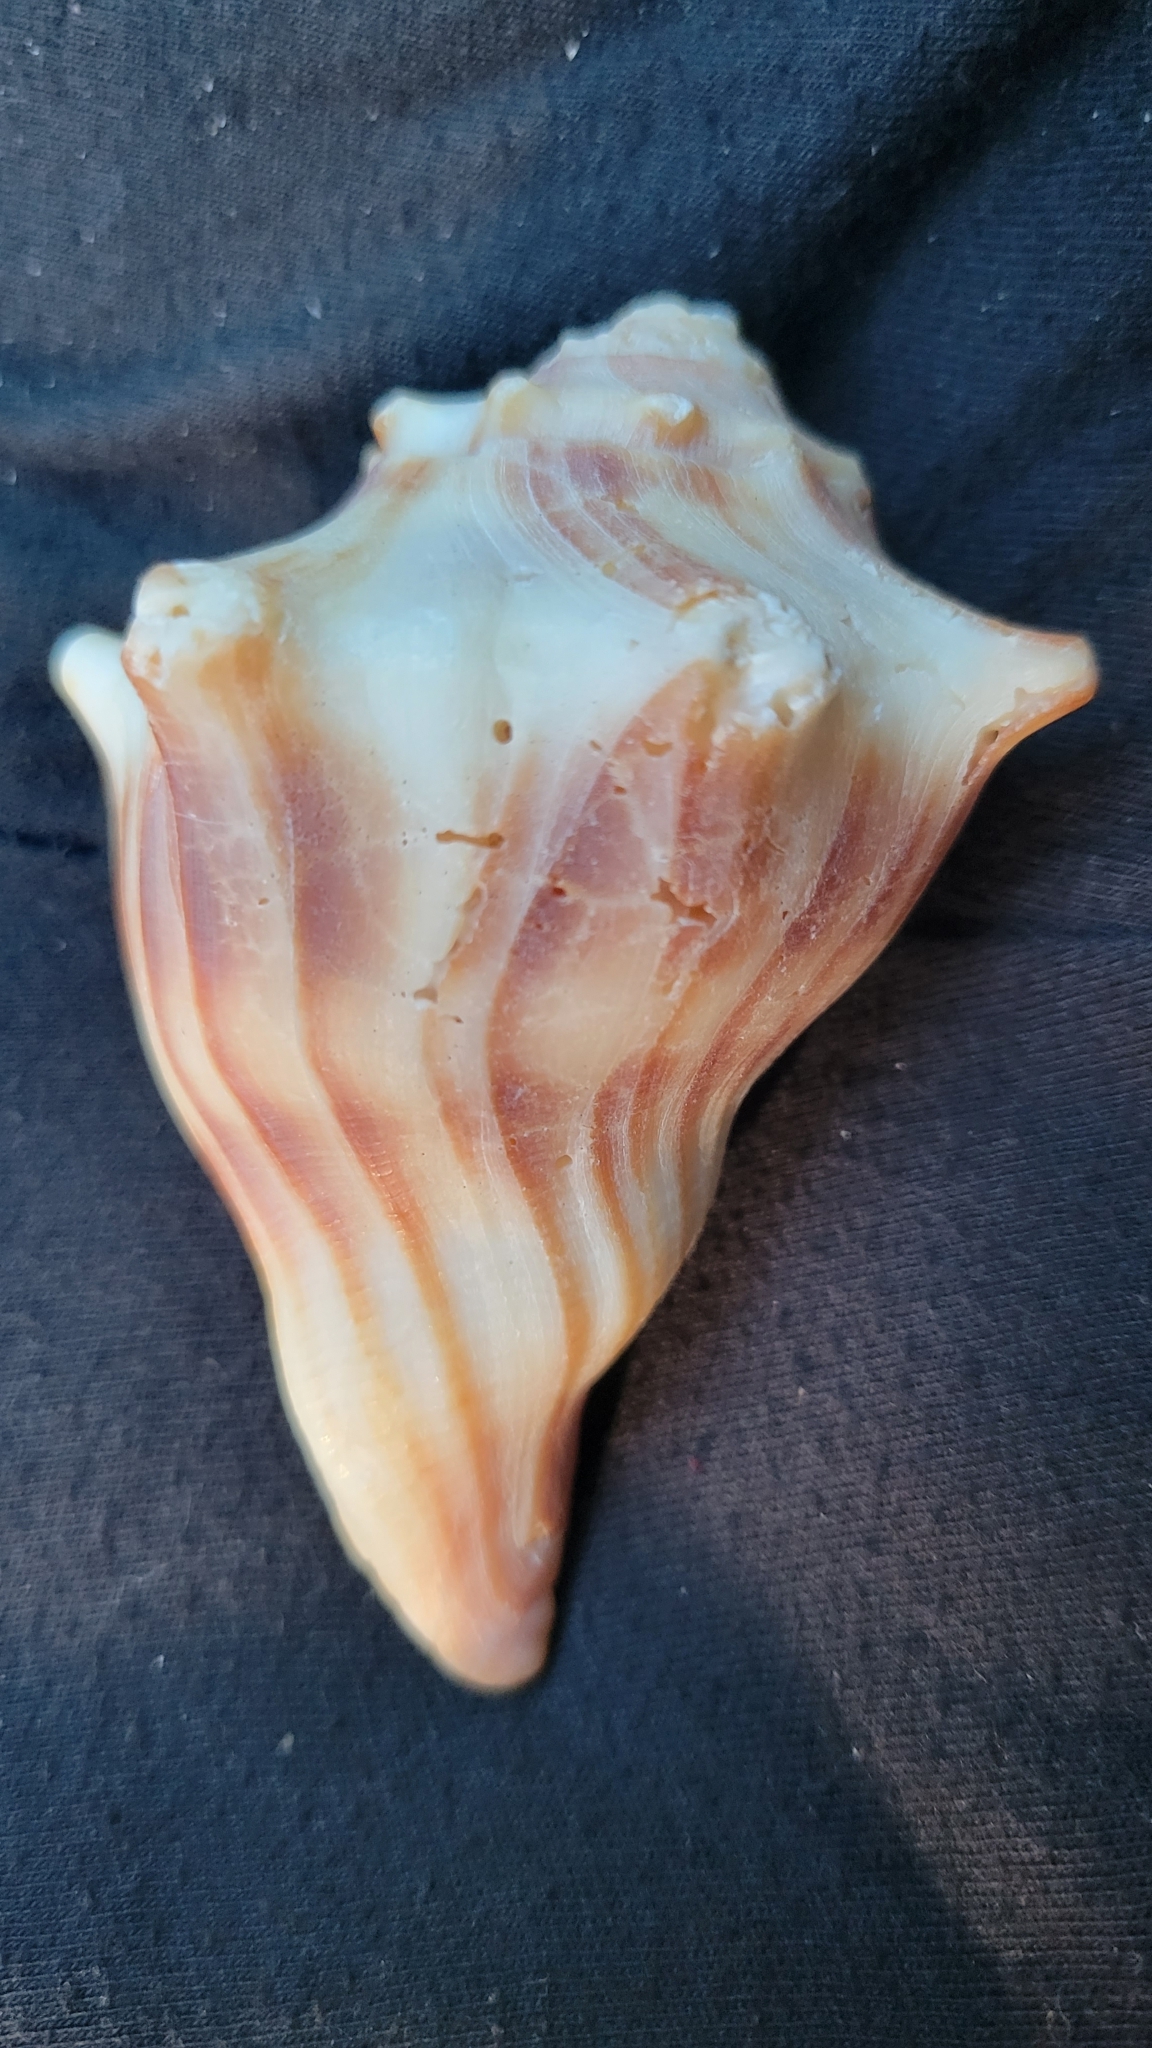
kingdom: Animalia
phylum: Mollusca
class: Gastropoda
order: Neogastropoda
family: Busyconidae
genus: Busycon
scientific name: Busycon carica
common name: Knobbed whelk
